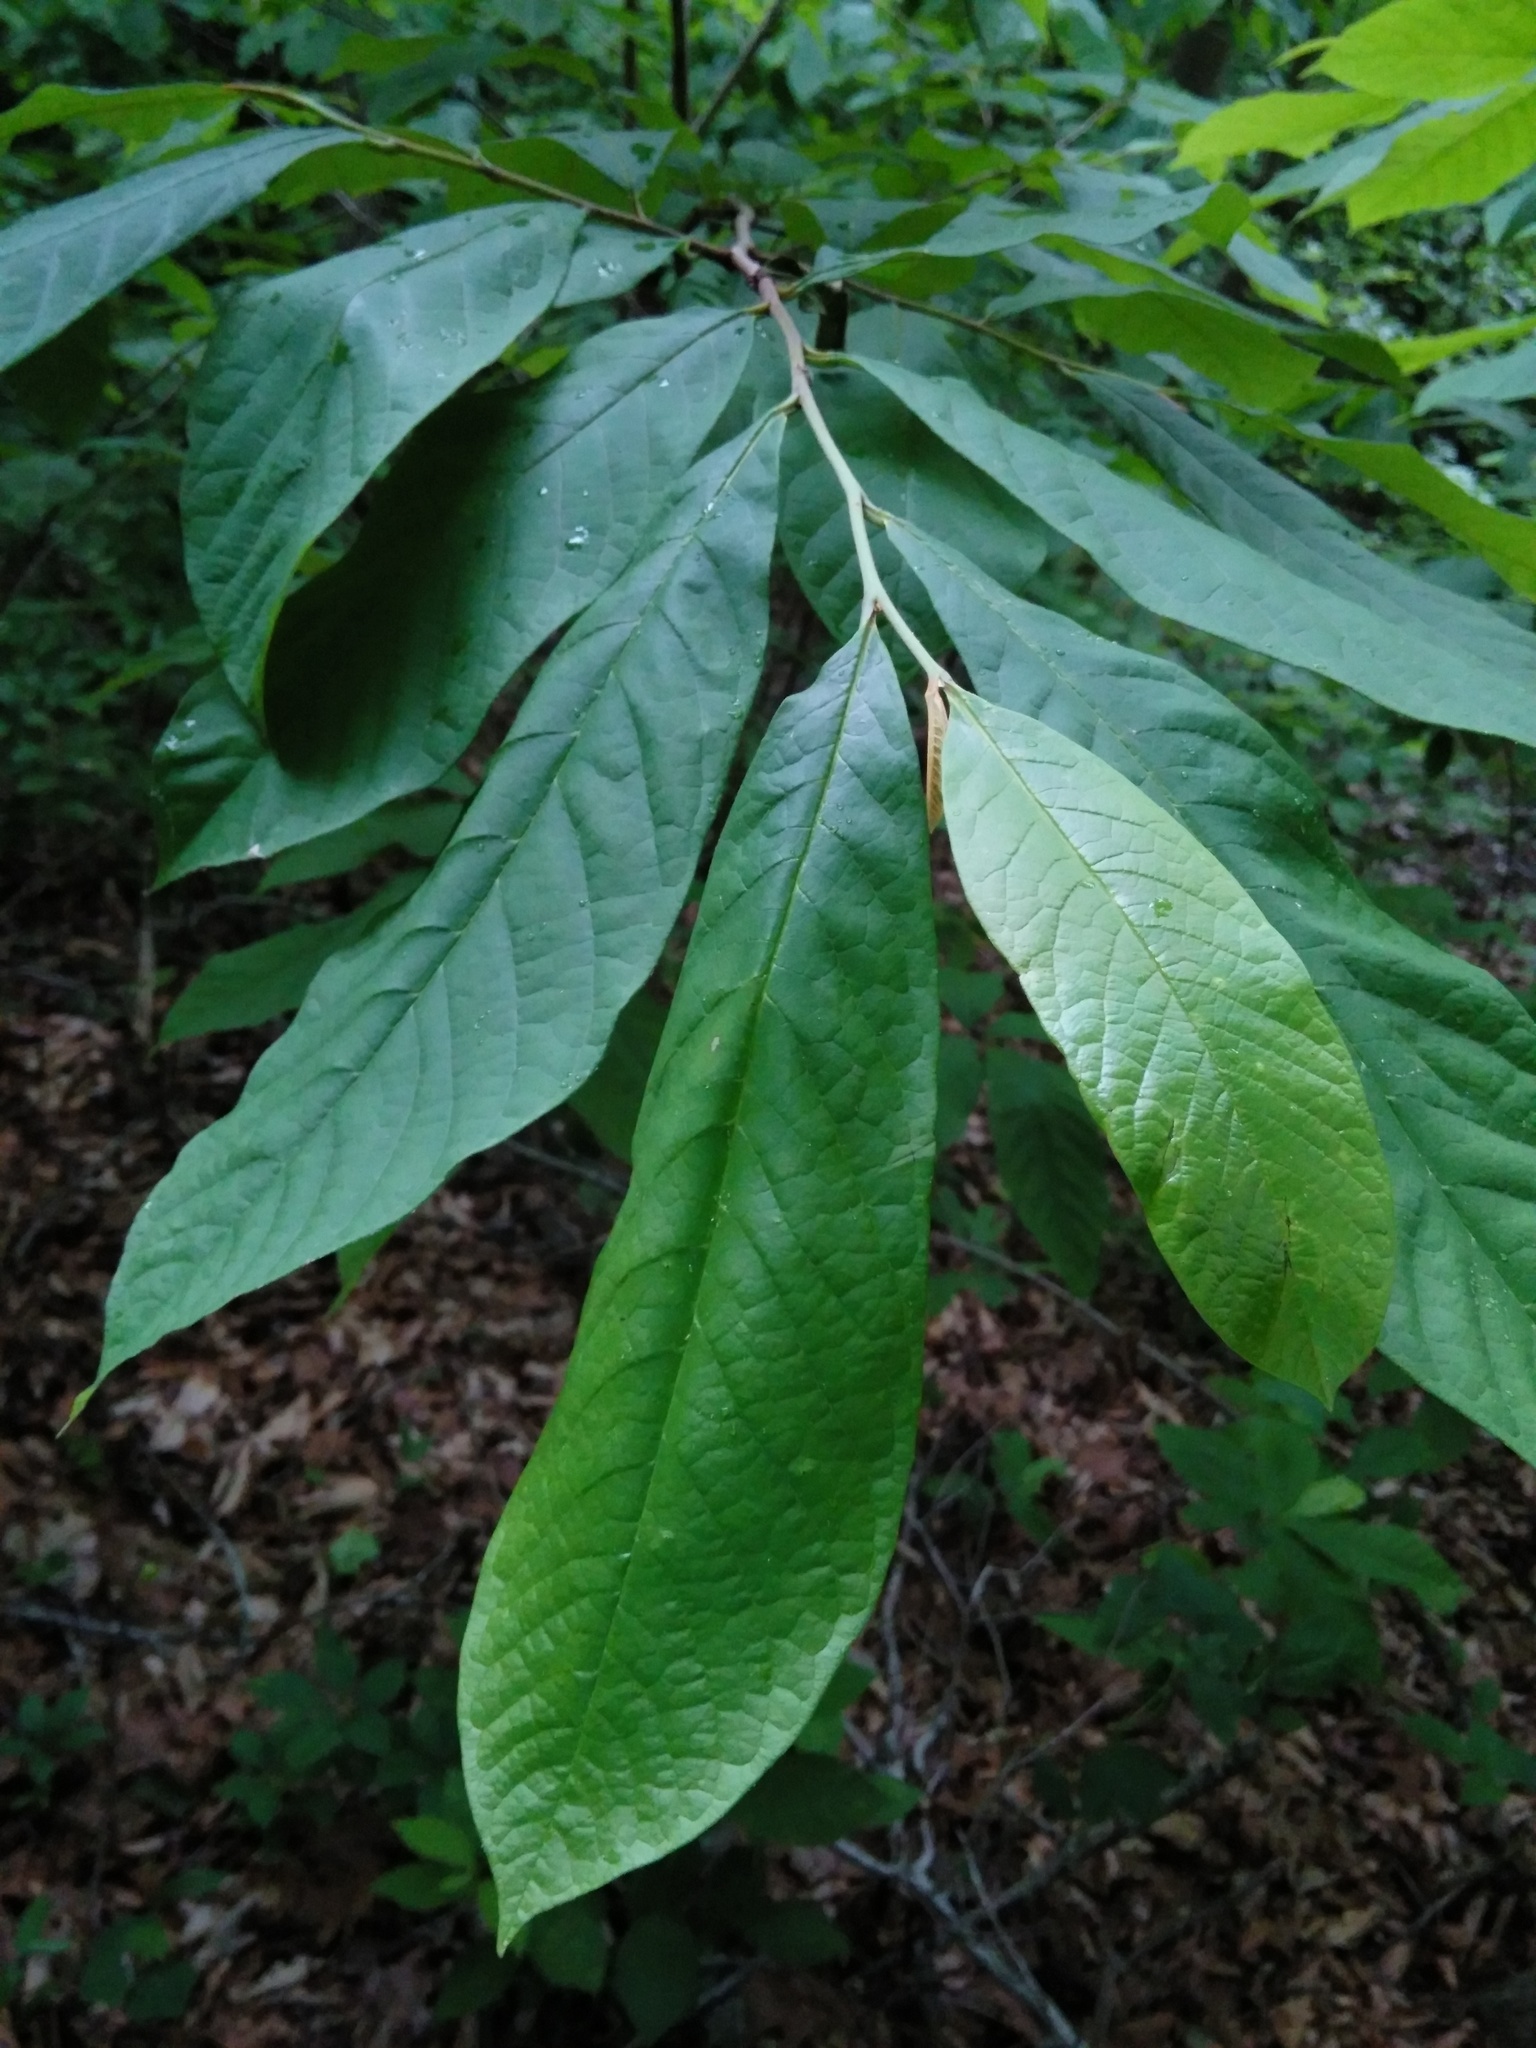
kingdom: Plantae
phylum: Tracheophyta
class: Magnoliopsida
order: Magnoliales
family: Annonaceae
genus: Asimina
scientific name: Asimina triloba
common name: Dog-banana
